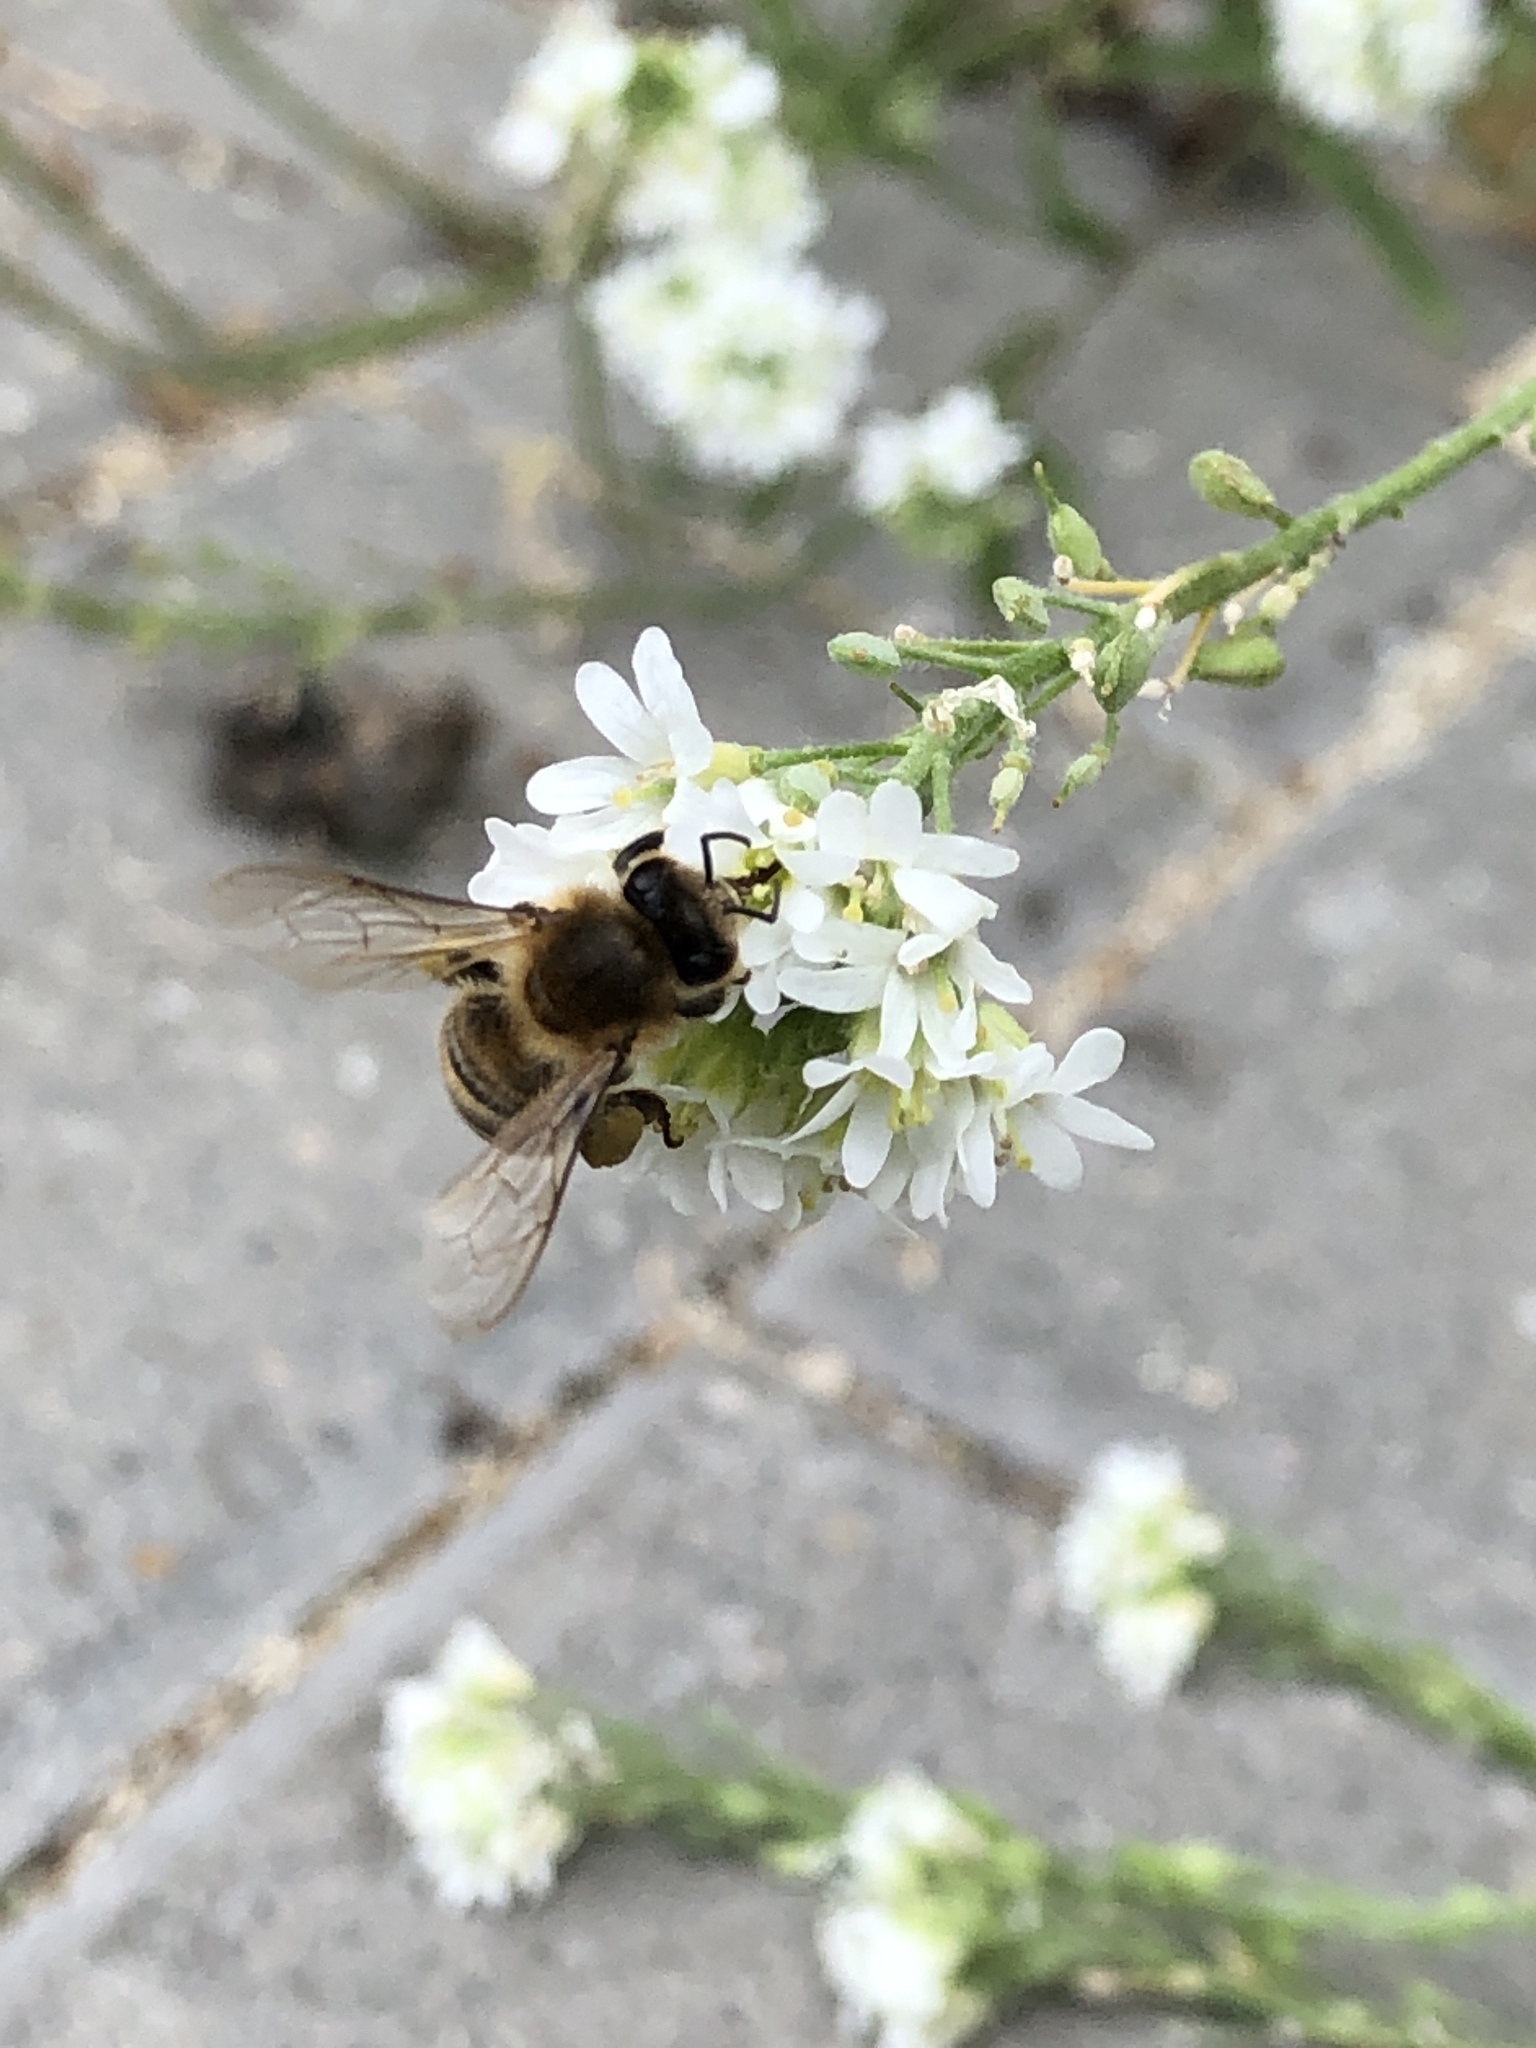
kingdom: Animalia
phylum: Arthropoda
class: Insecta
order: Hymenoptera
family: Apidae
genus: Apis
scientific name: Apis mellifera
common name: Honey bee
